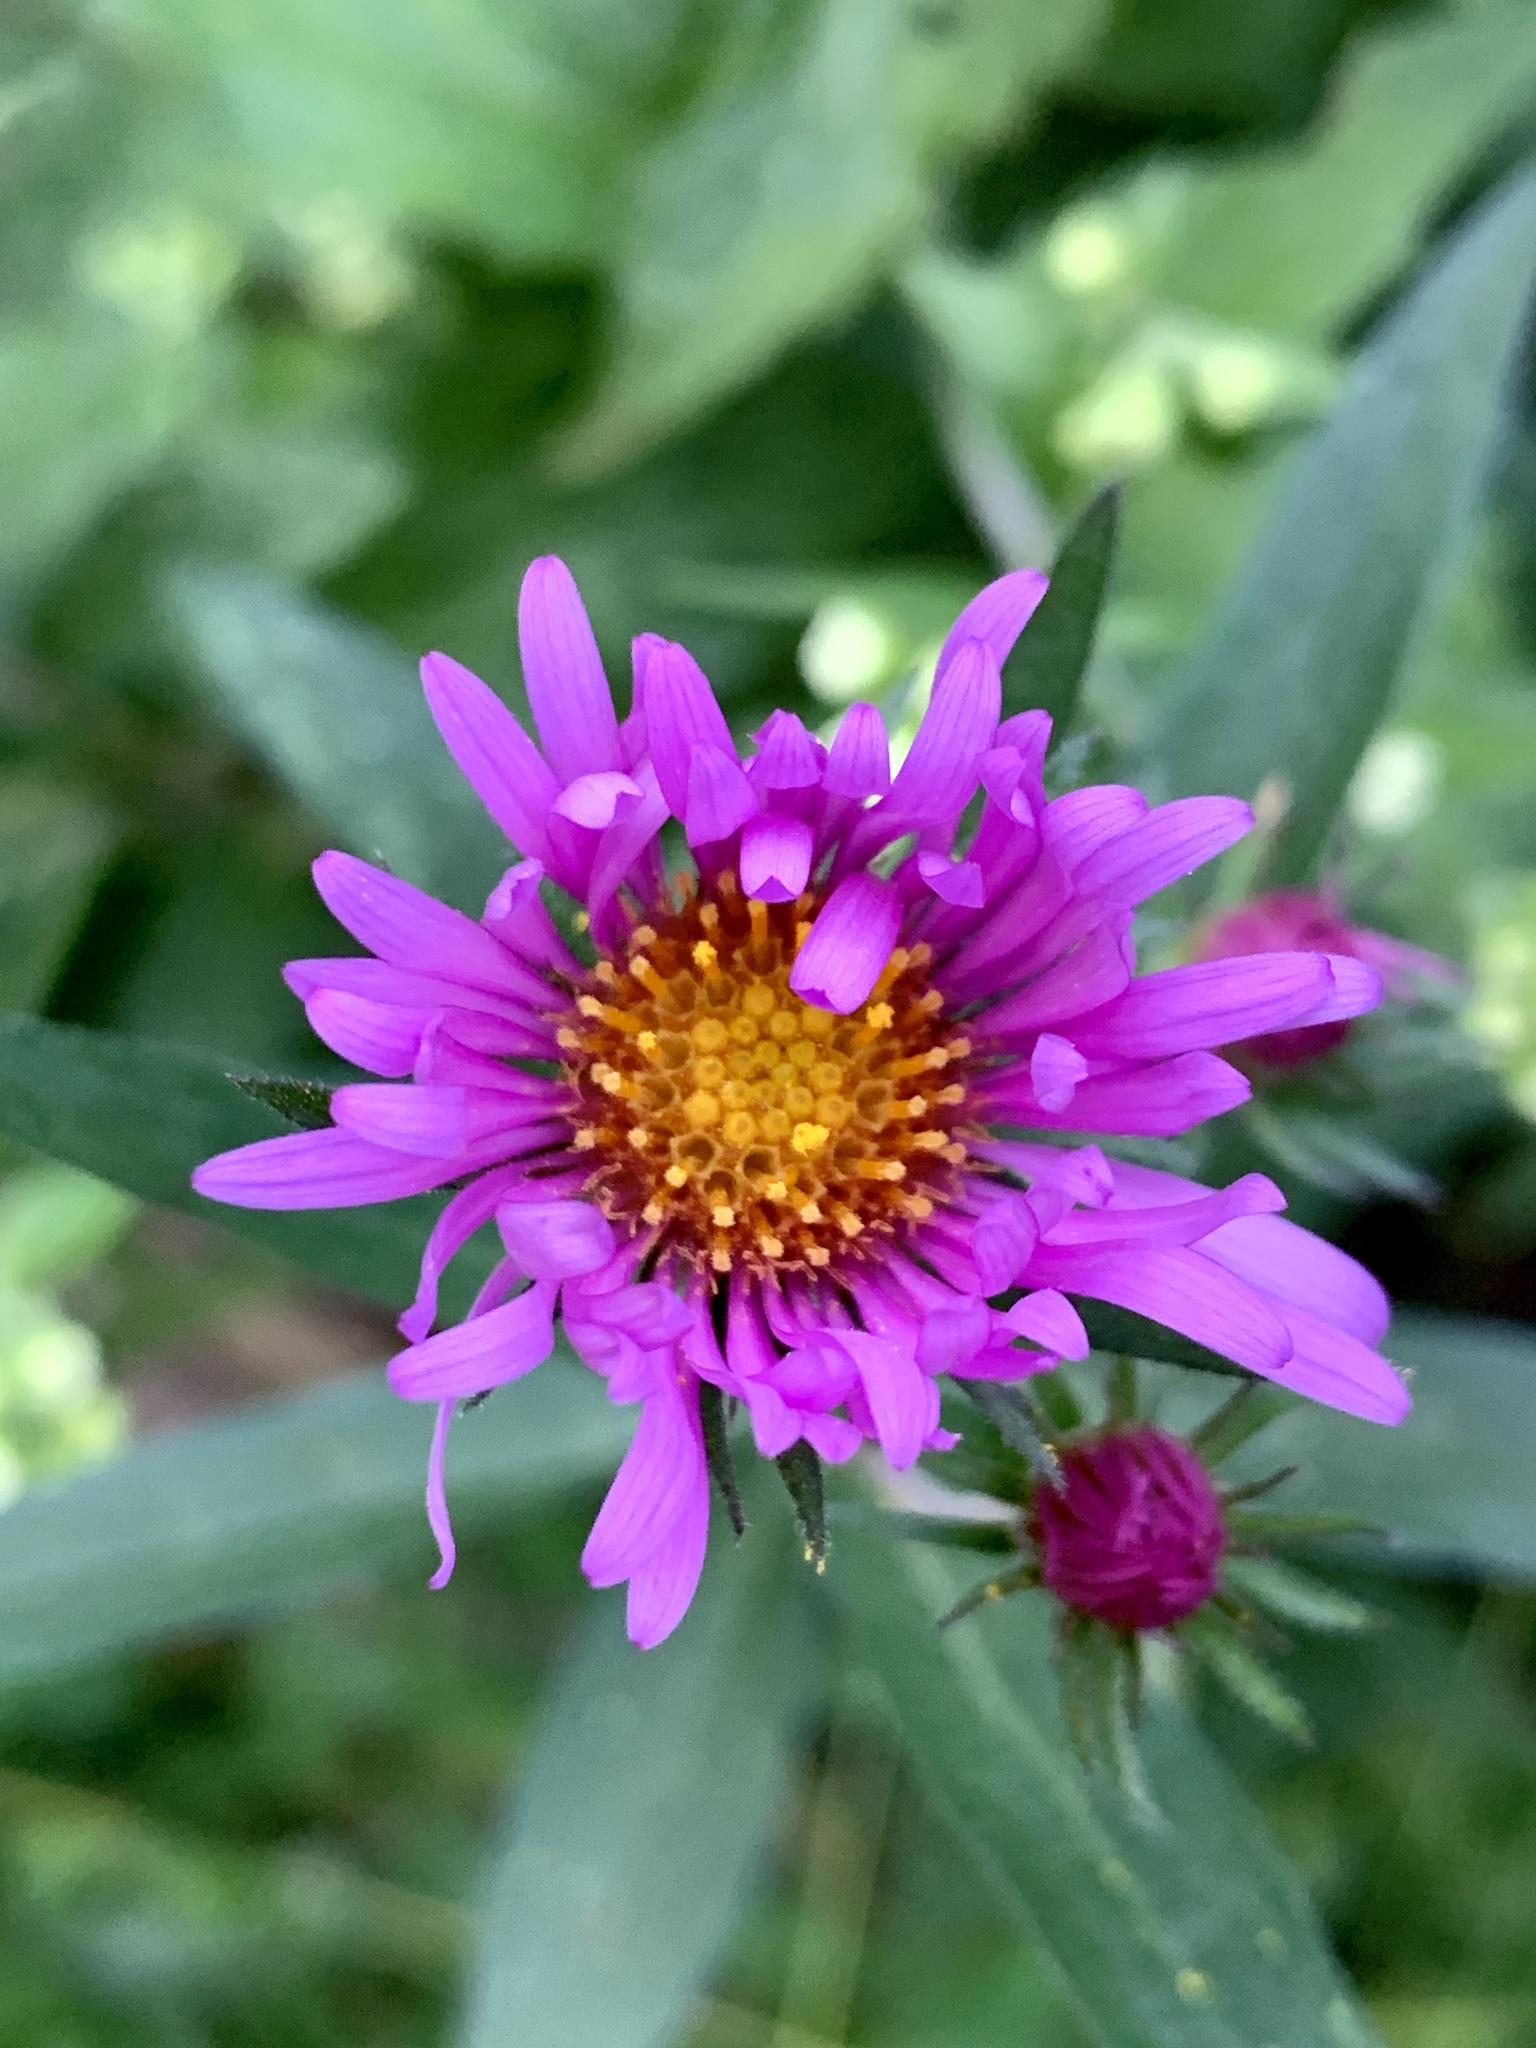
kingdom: Plantae
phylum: Tracheophyta
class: Magnoliopsida
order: Asterales
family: Asteraceae
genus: Symphyotrichum
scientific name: Symphyotrichum novae-angliae
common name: Michaelmas daisy
